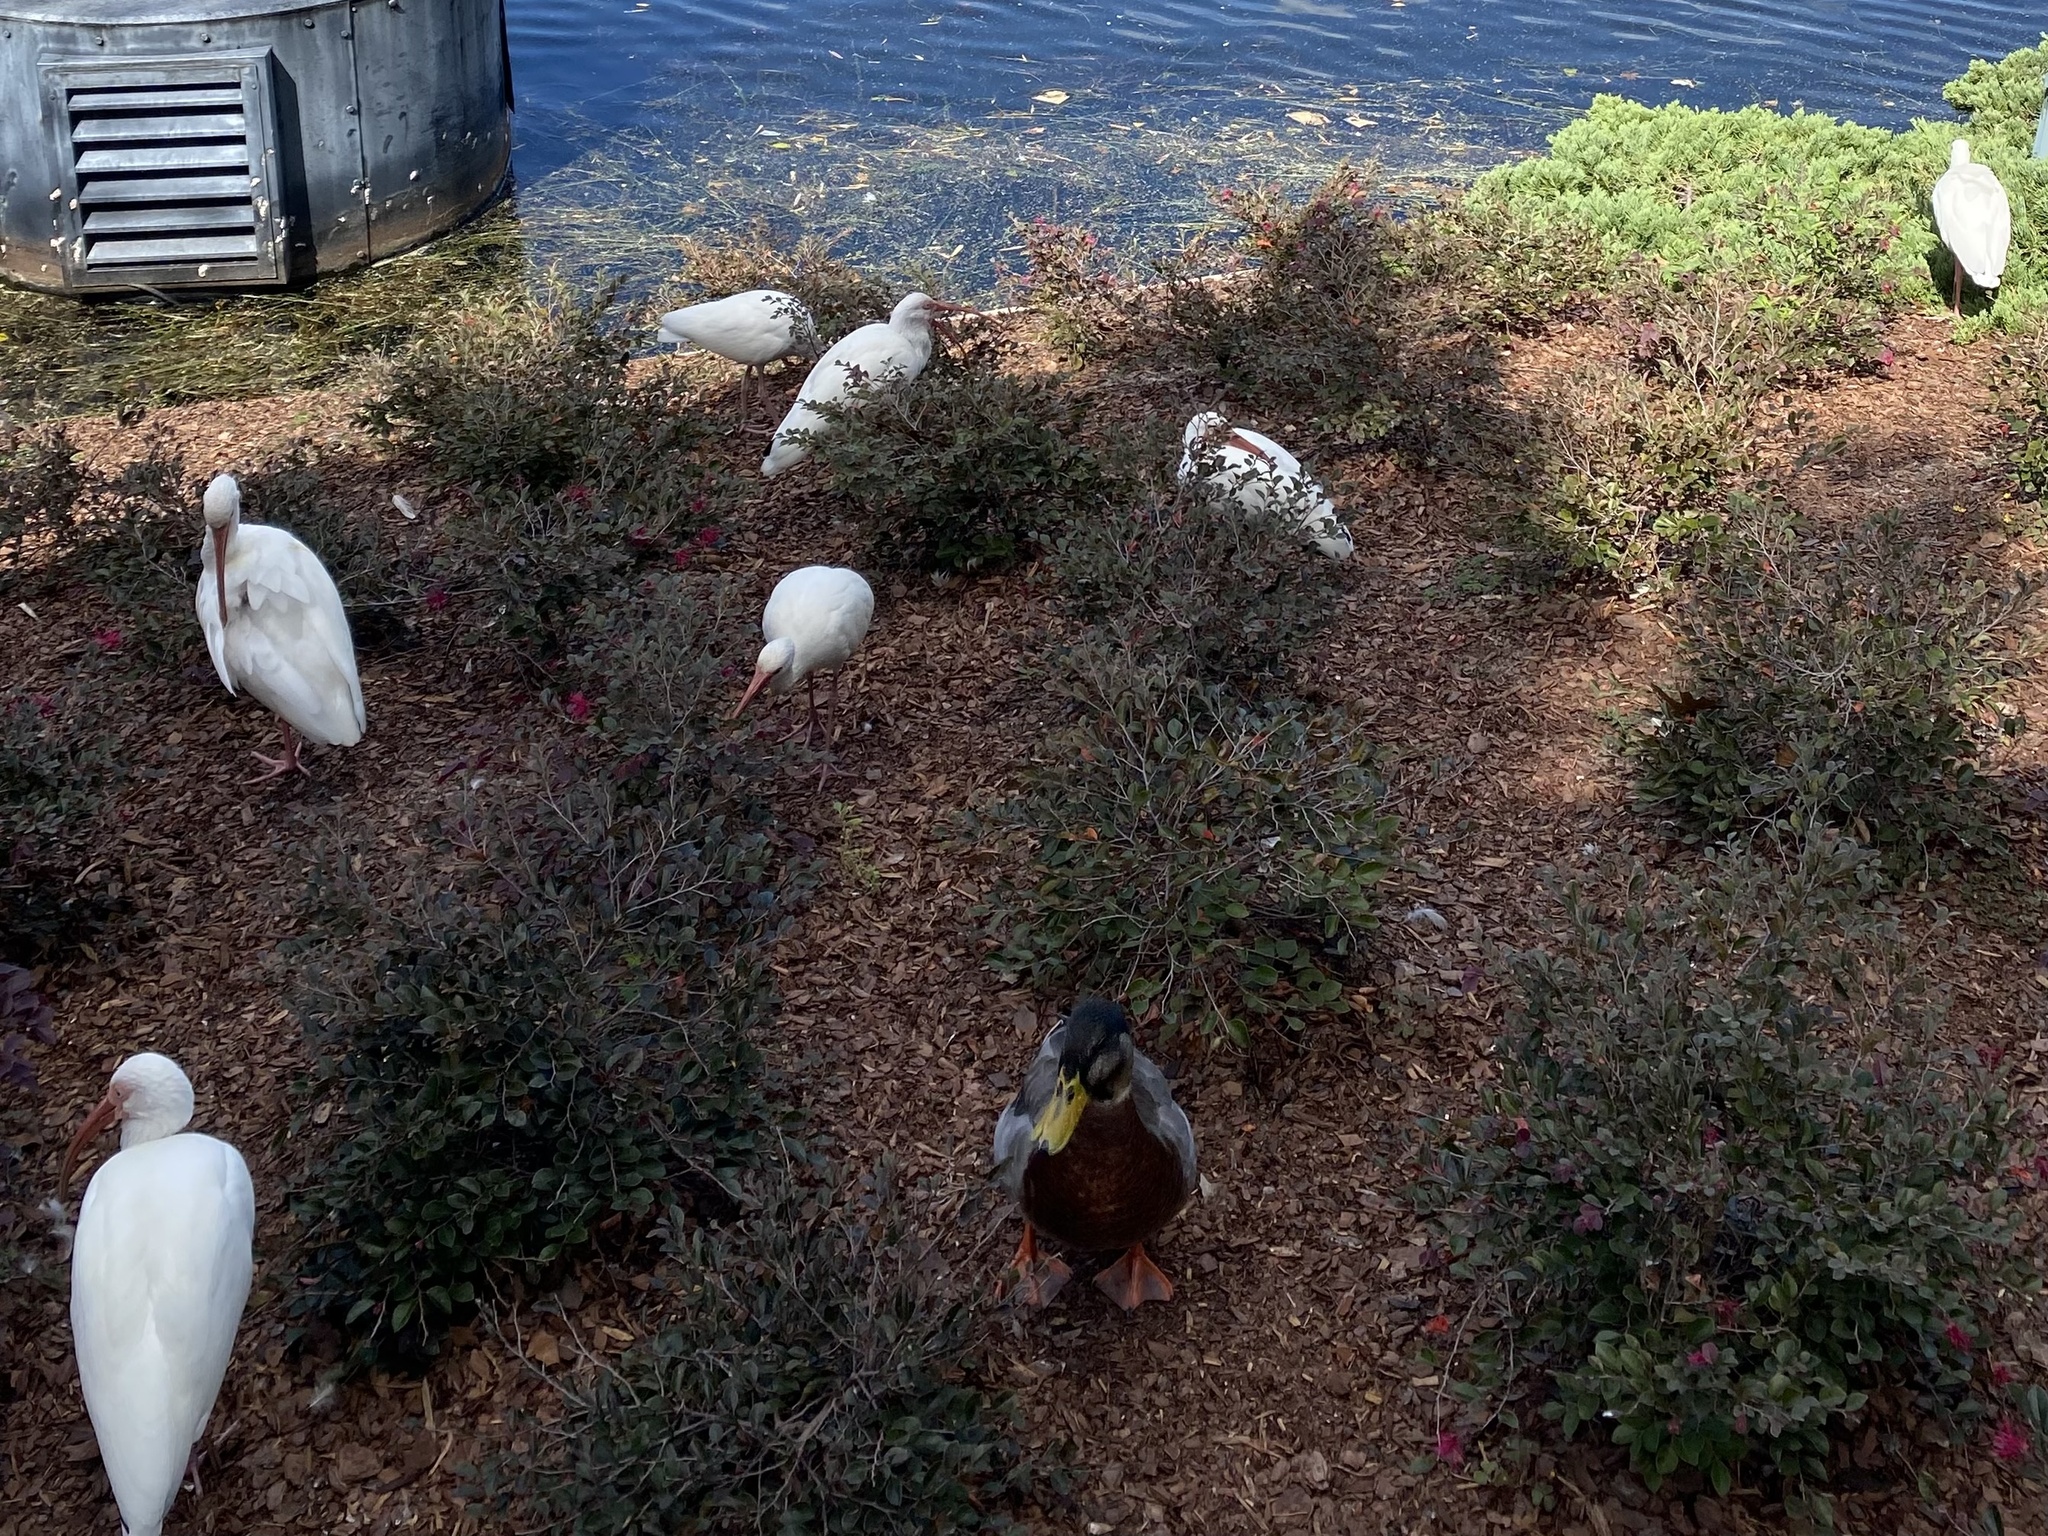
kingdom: Animalia
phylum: Chordata
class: Aves
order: Pelecaniformes
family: Threskiornithidae
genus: Eudocimus
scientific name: Eudocimus albus
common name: White ibis
